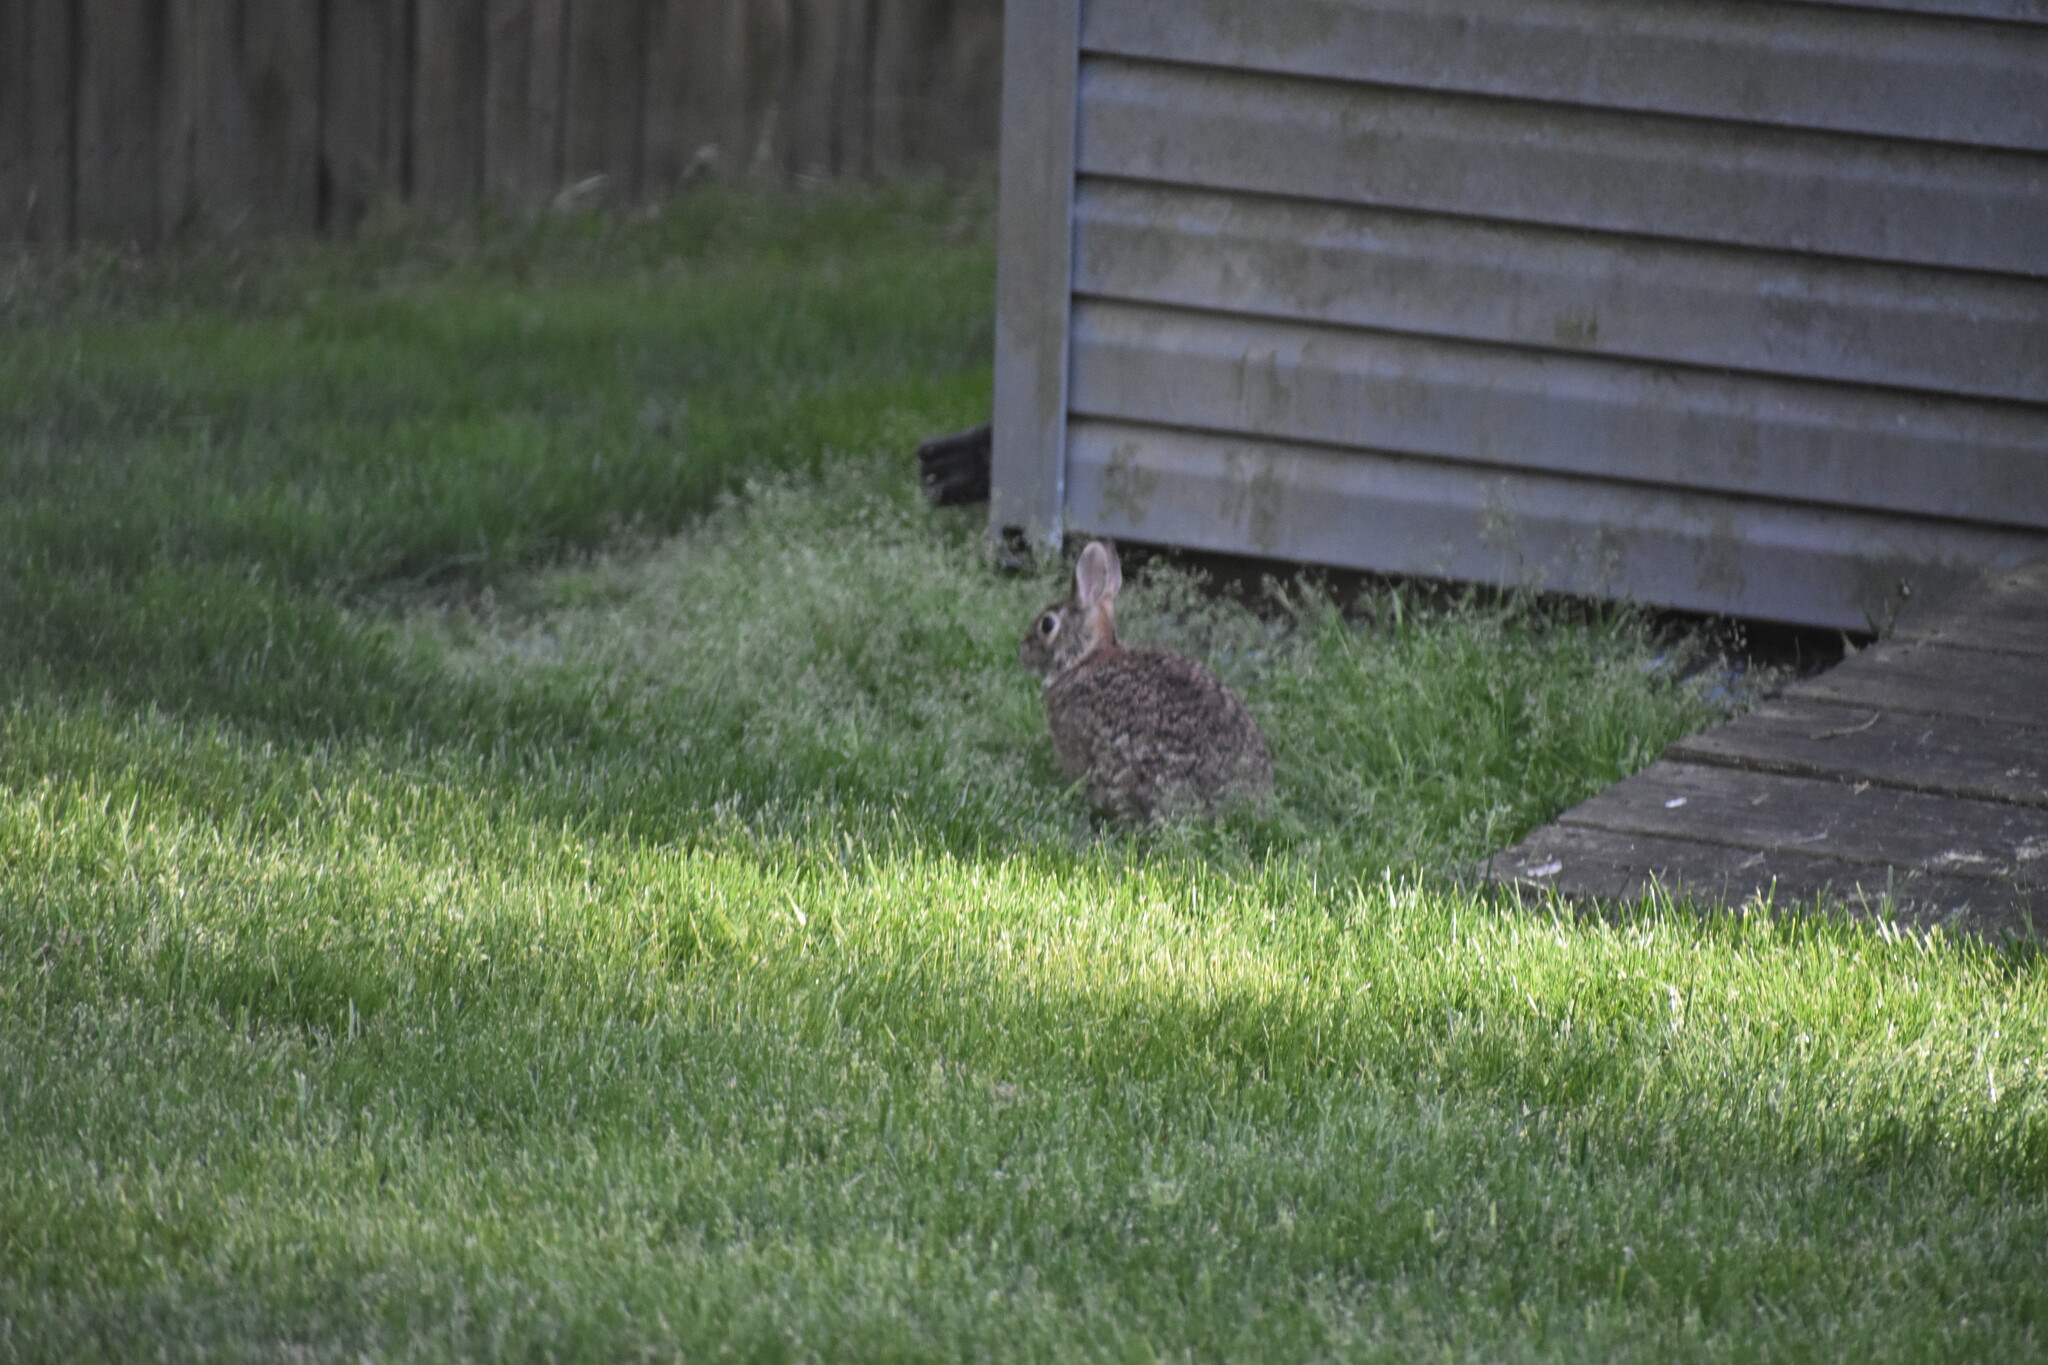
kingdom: Animalia
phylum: Chordata
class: Mammalia
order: Lagomorpha
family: Leporidae
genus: Sylvilagus
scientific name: Sylvilagus floridanus
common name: Eastern cottontail
